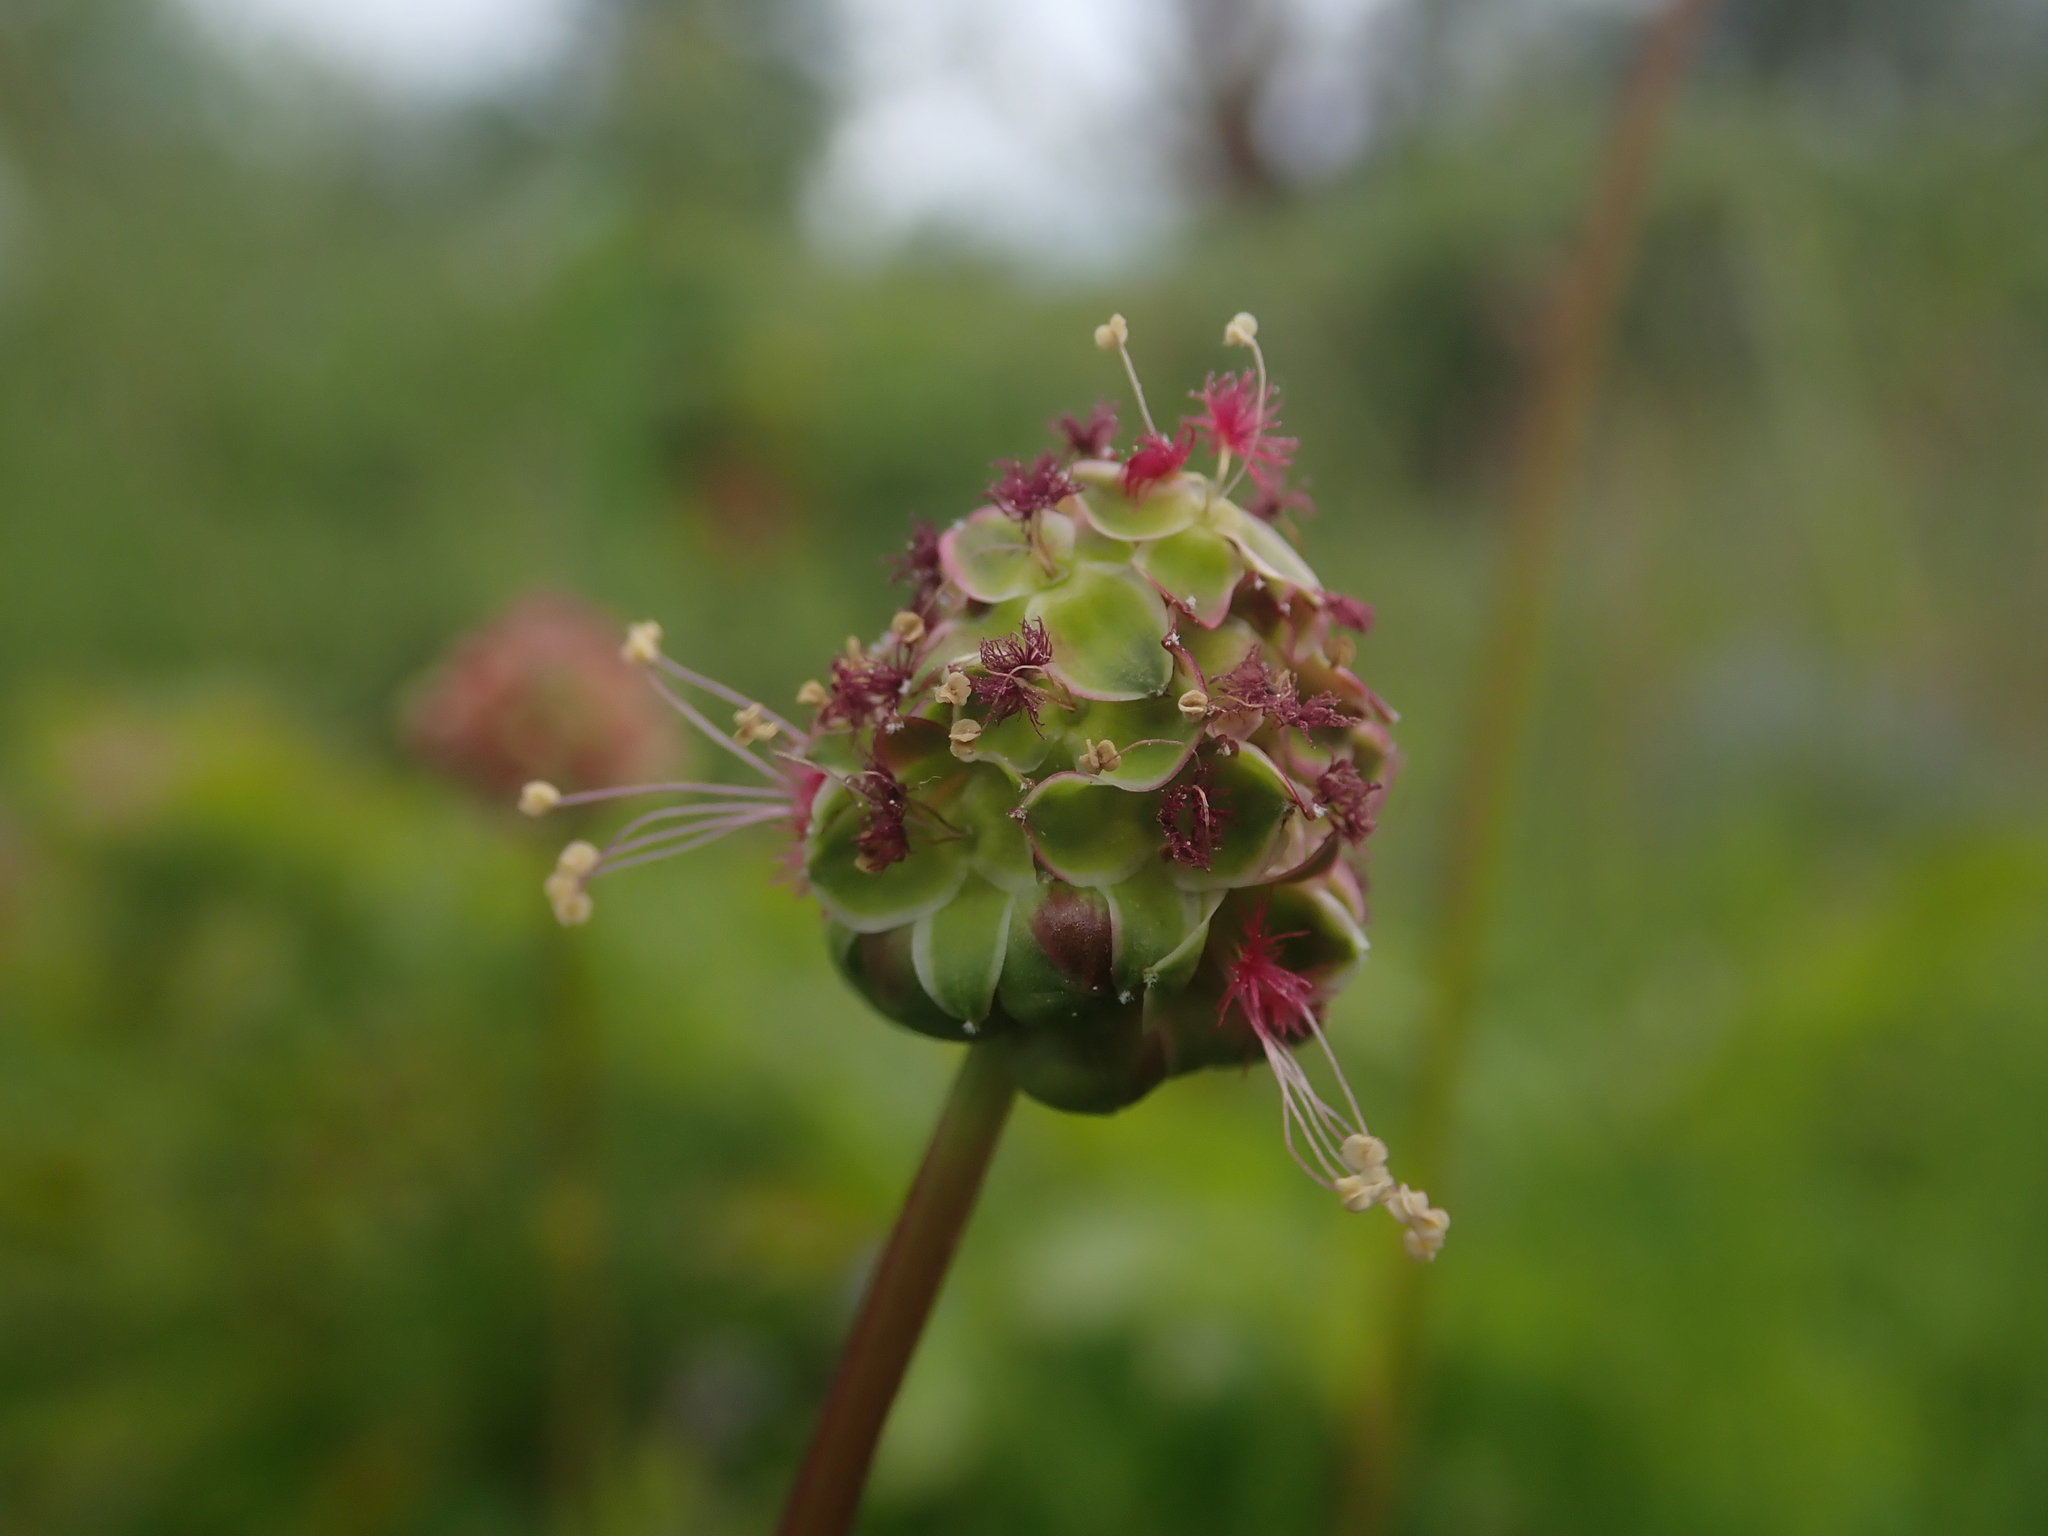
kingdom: Plantae
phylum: Tracheophyta
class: Magnoliopsida
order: Rosales
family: Rosaceae
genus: Poterium
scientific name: Poterium sanguisorba
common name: Salad burnet
